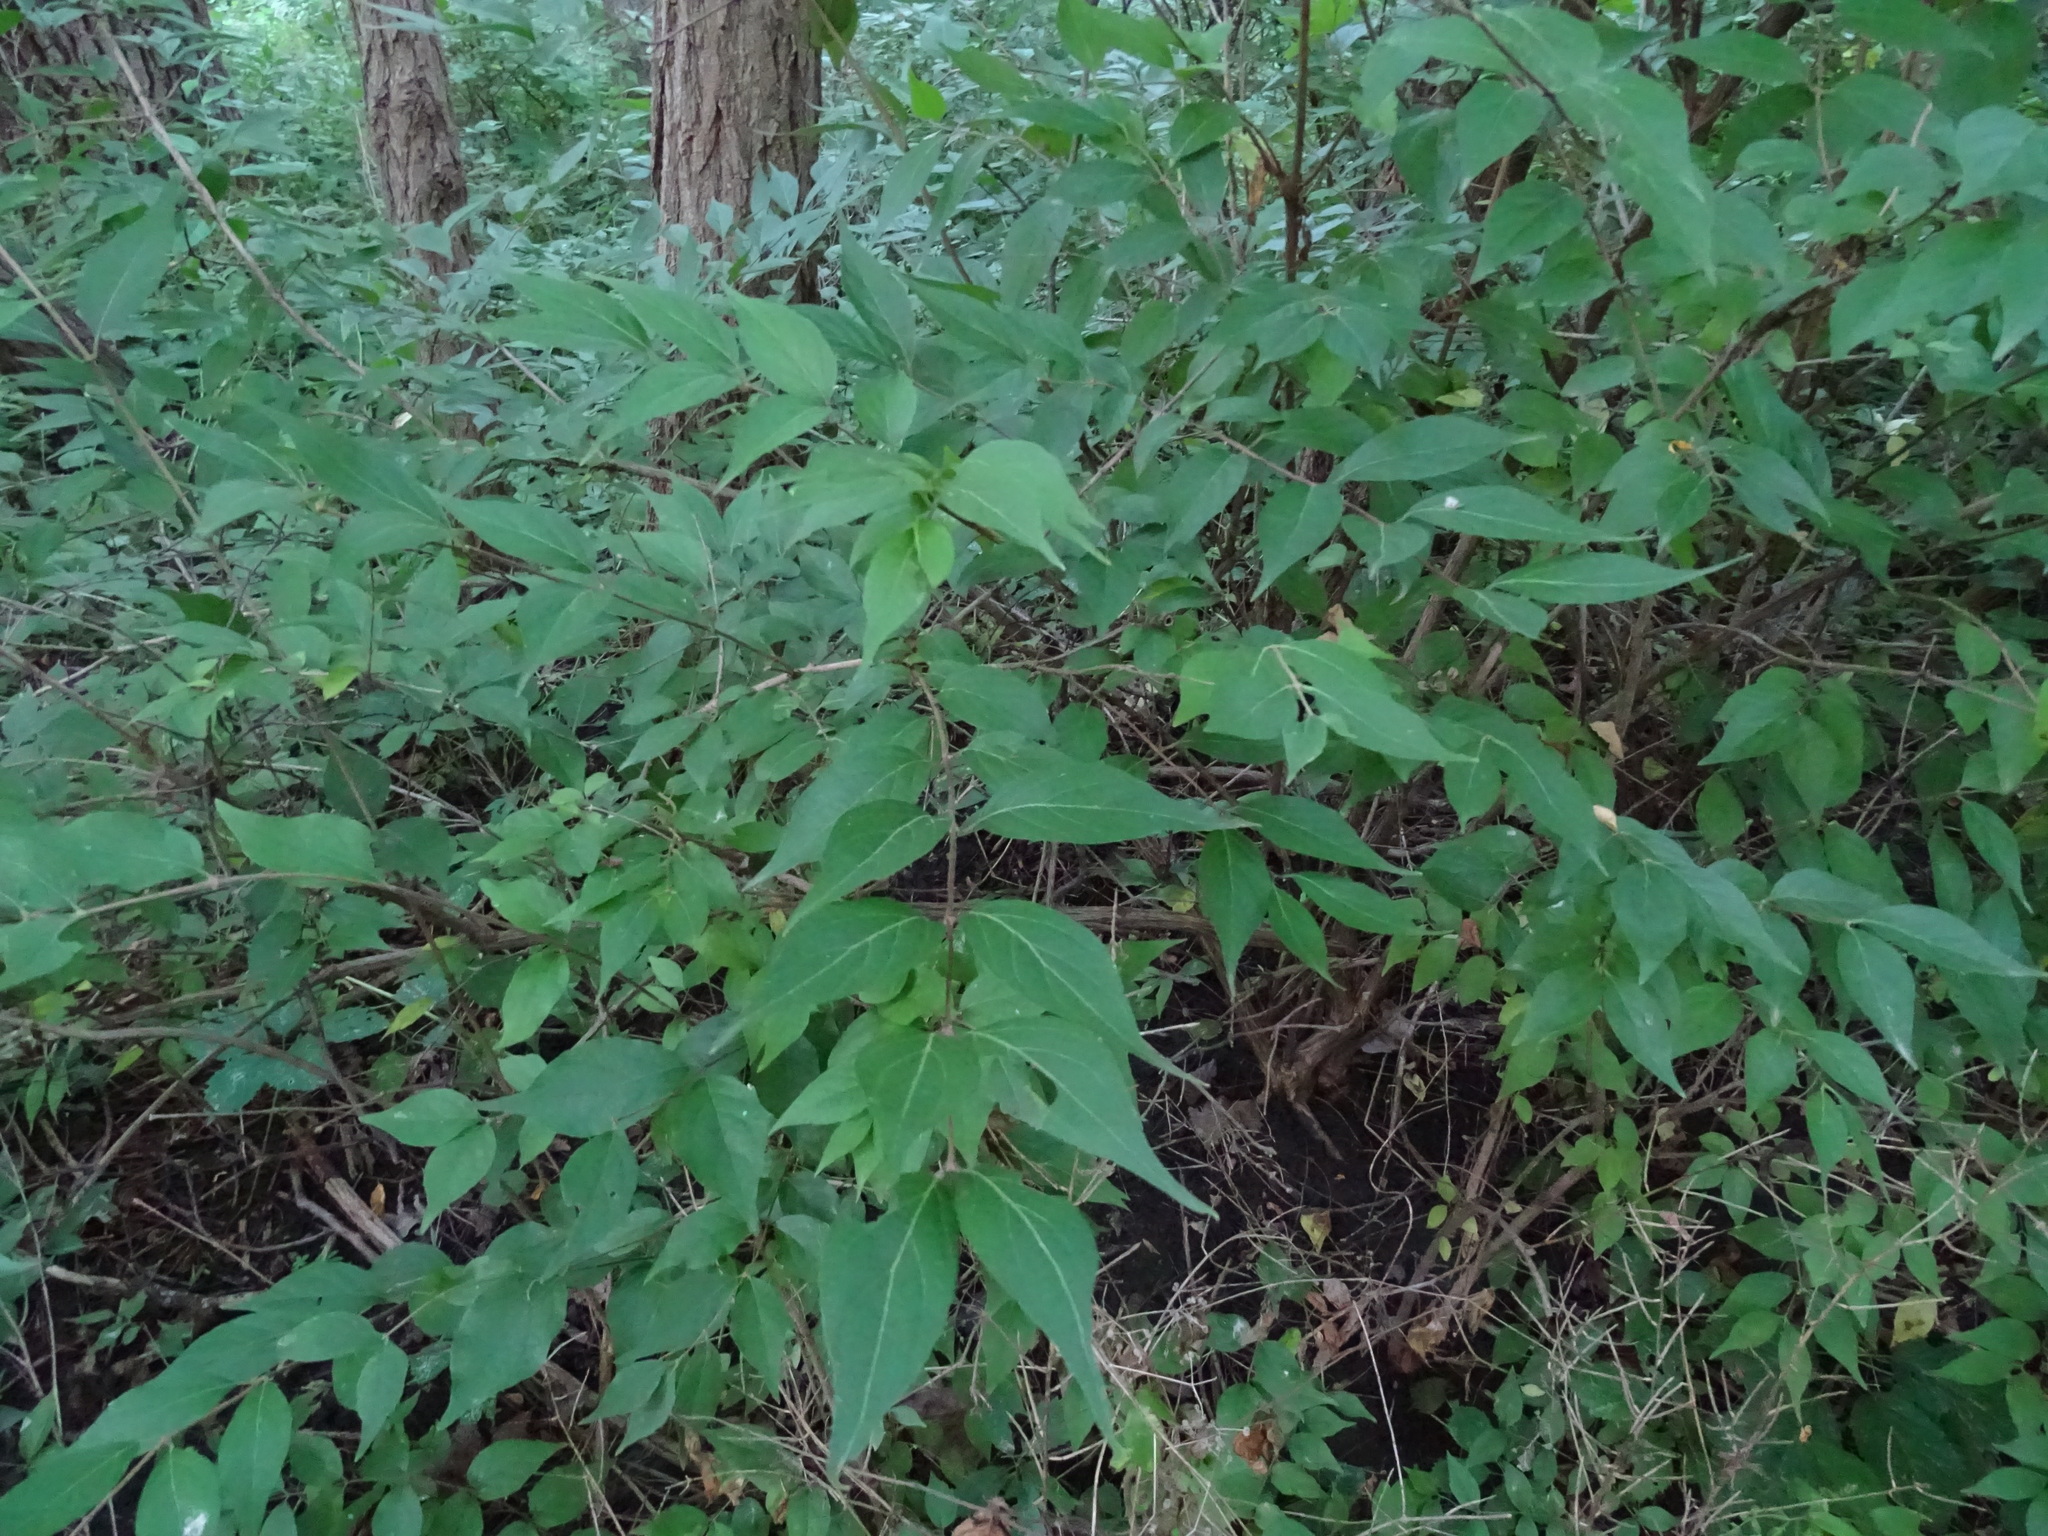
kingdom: Plantae
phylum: Tracheophyta
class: Magnoliopsida
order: Dipsacales
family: Caprifoliaceae
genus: Lonicera
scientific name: Lonicera maackii
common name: Amur honeysuckle
